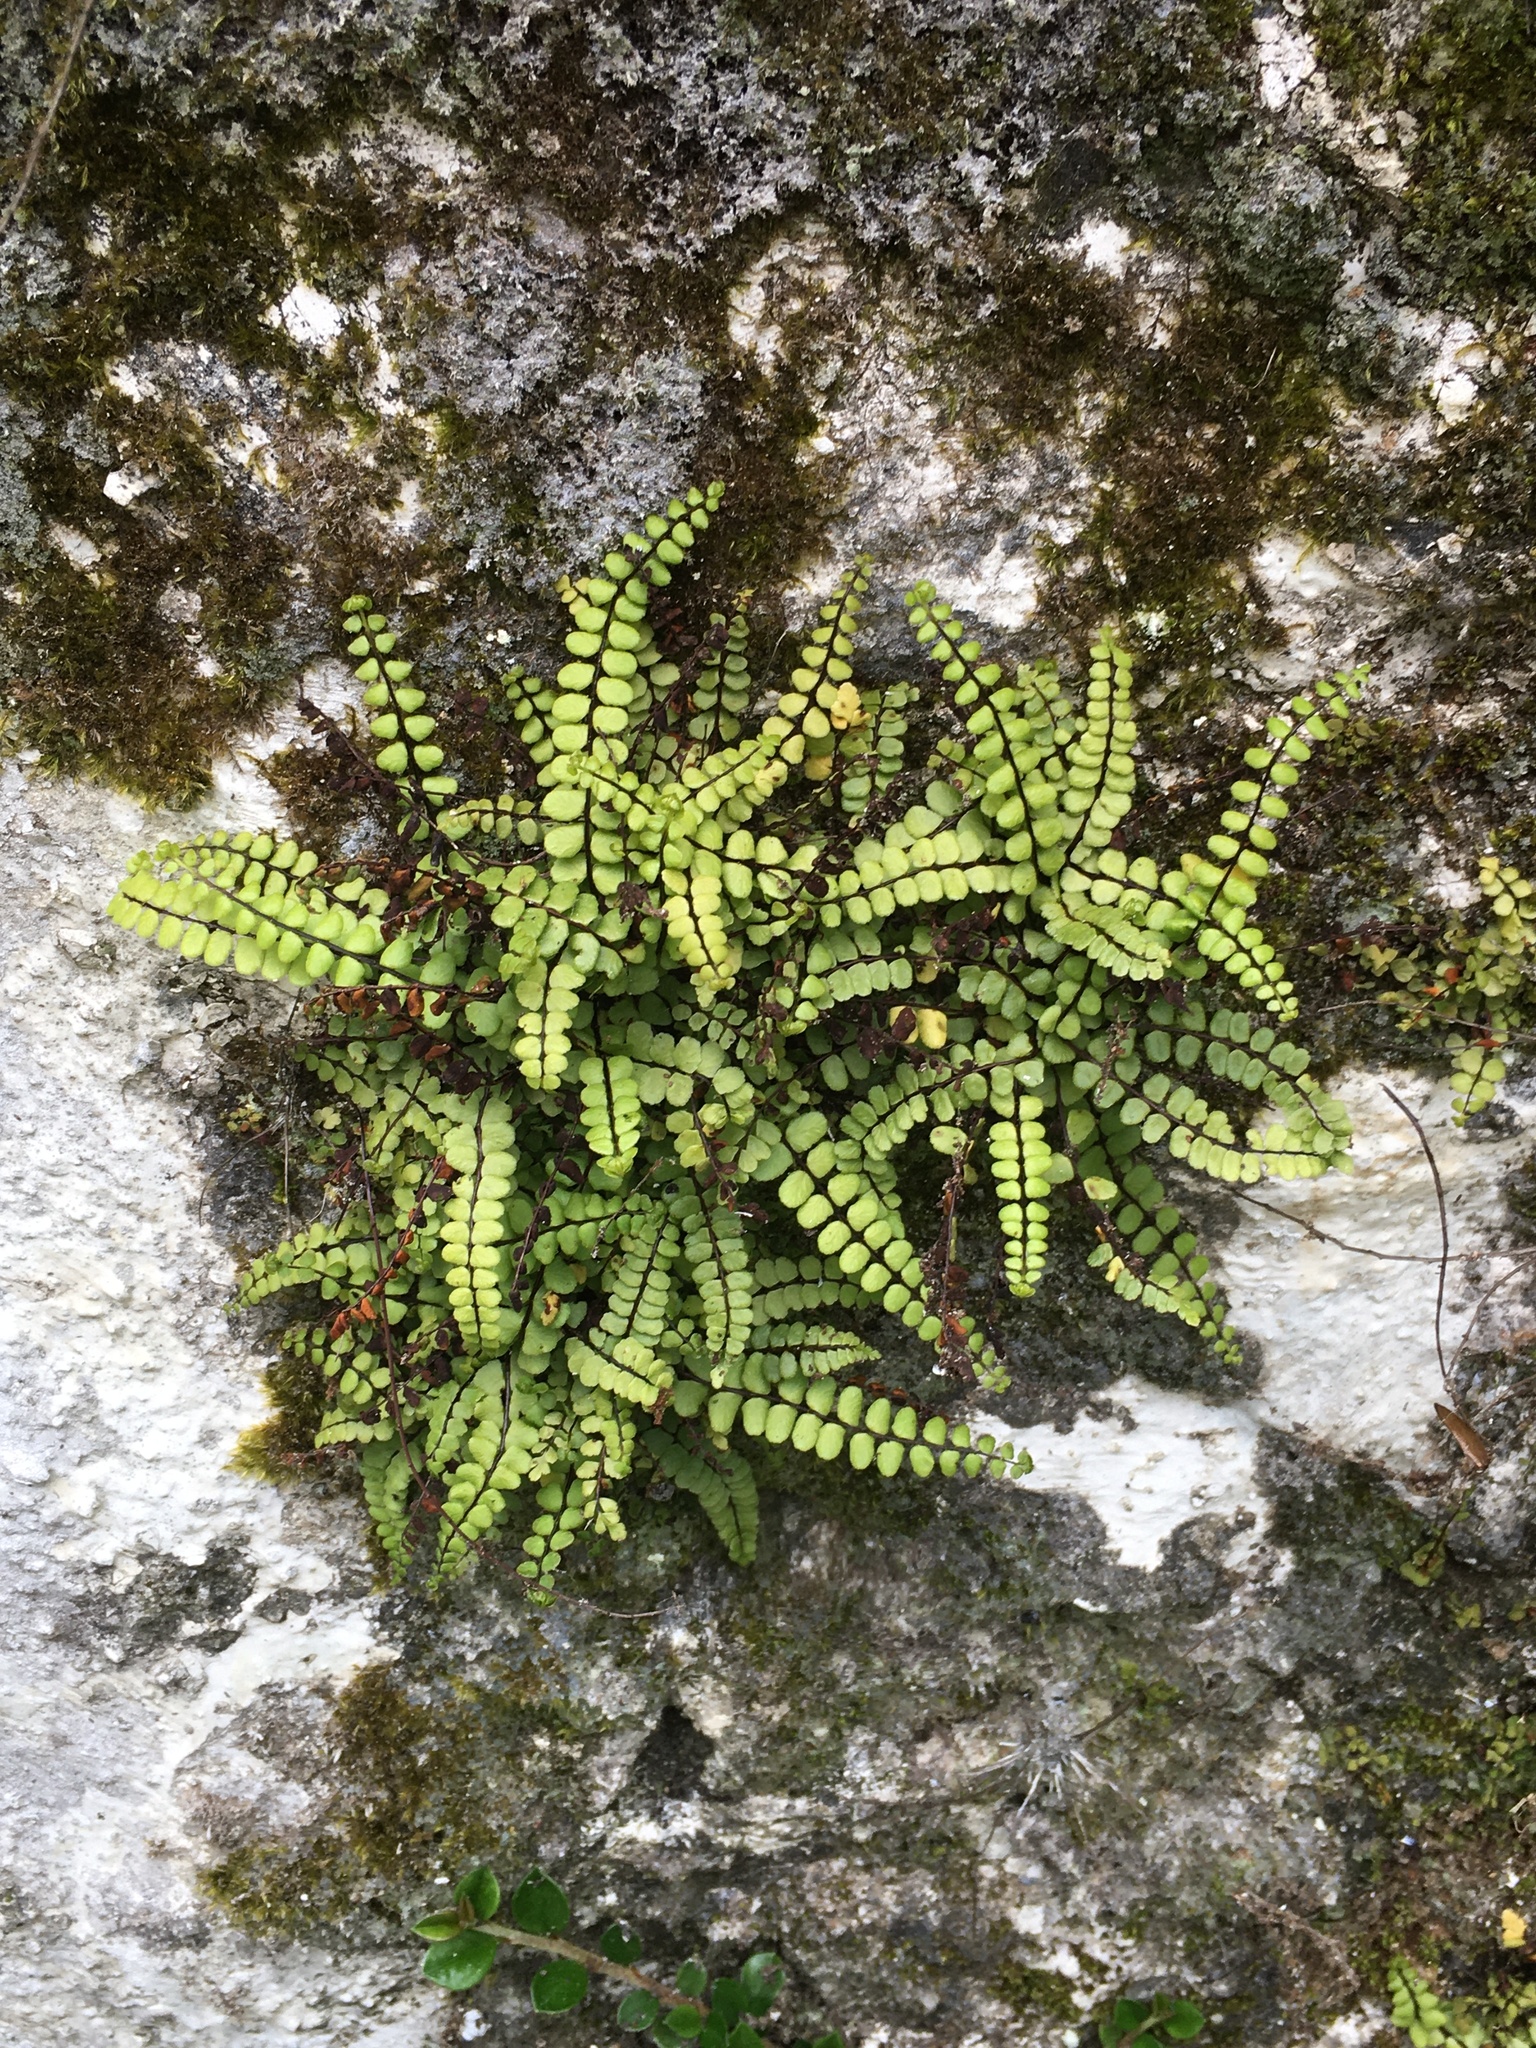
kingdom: Plantae
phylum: Tracheophyta
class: Polypodiopsida
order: Polypodiales
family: Aspleniaceae
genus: Asplenium
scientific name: Asplenium trichomanes
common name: Maidenhair spleenwort
